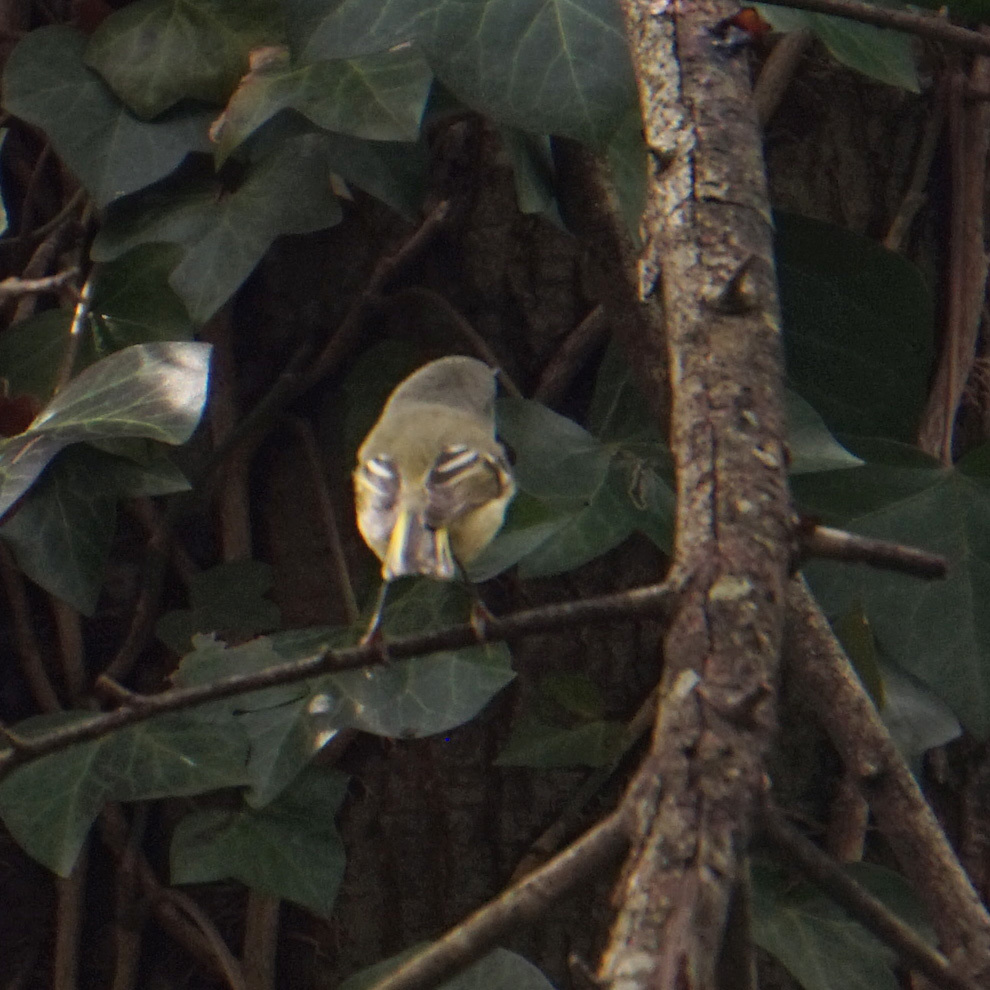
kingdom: Animalia
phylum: Chordata
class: Aves
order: Passeriformes
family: Regulidae
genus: Regulus
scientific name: Regulus calendula
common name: Ruby-crowned kinglet
